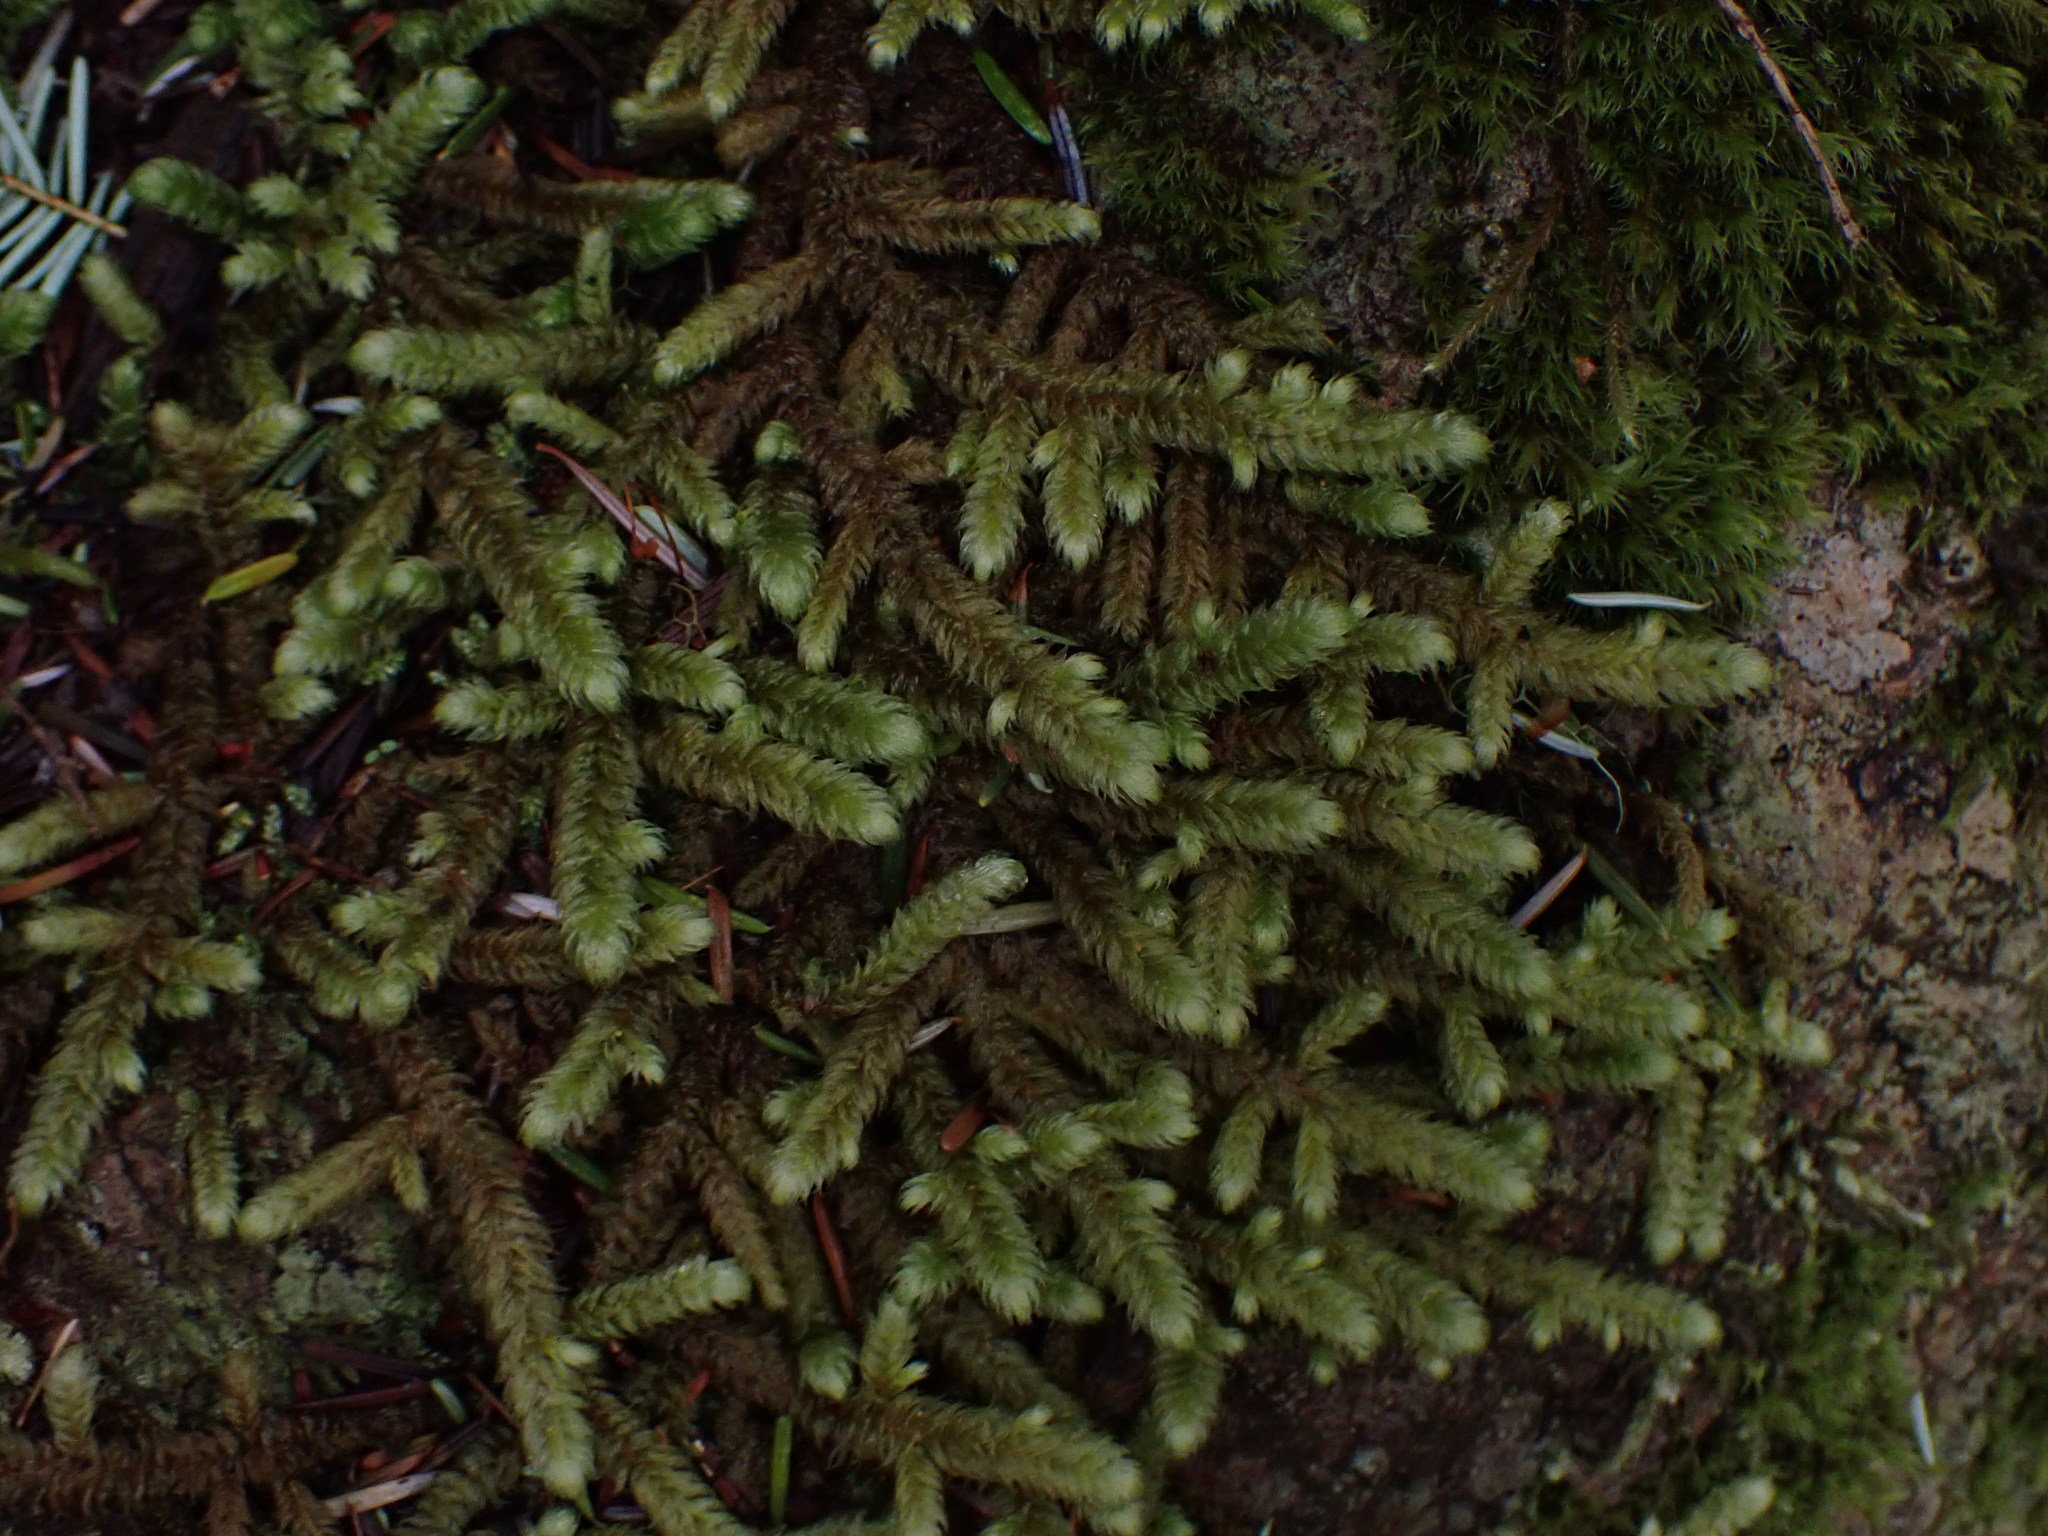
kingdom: Plantae
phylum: Bryophyta
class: Bryopsida
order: Hypnales
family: Hylocomiaceae
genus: Rhytidiopsis
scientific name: Rhytidiopsis robusta
